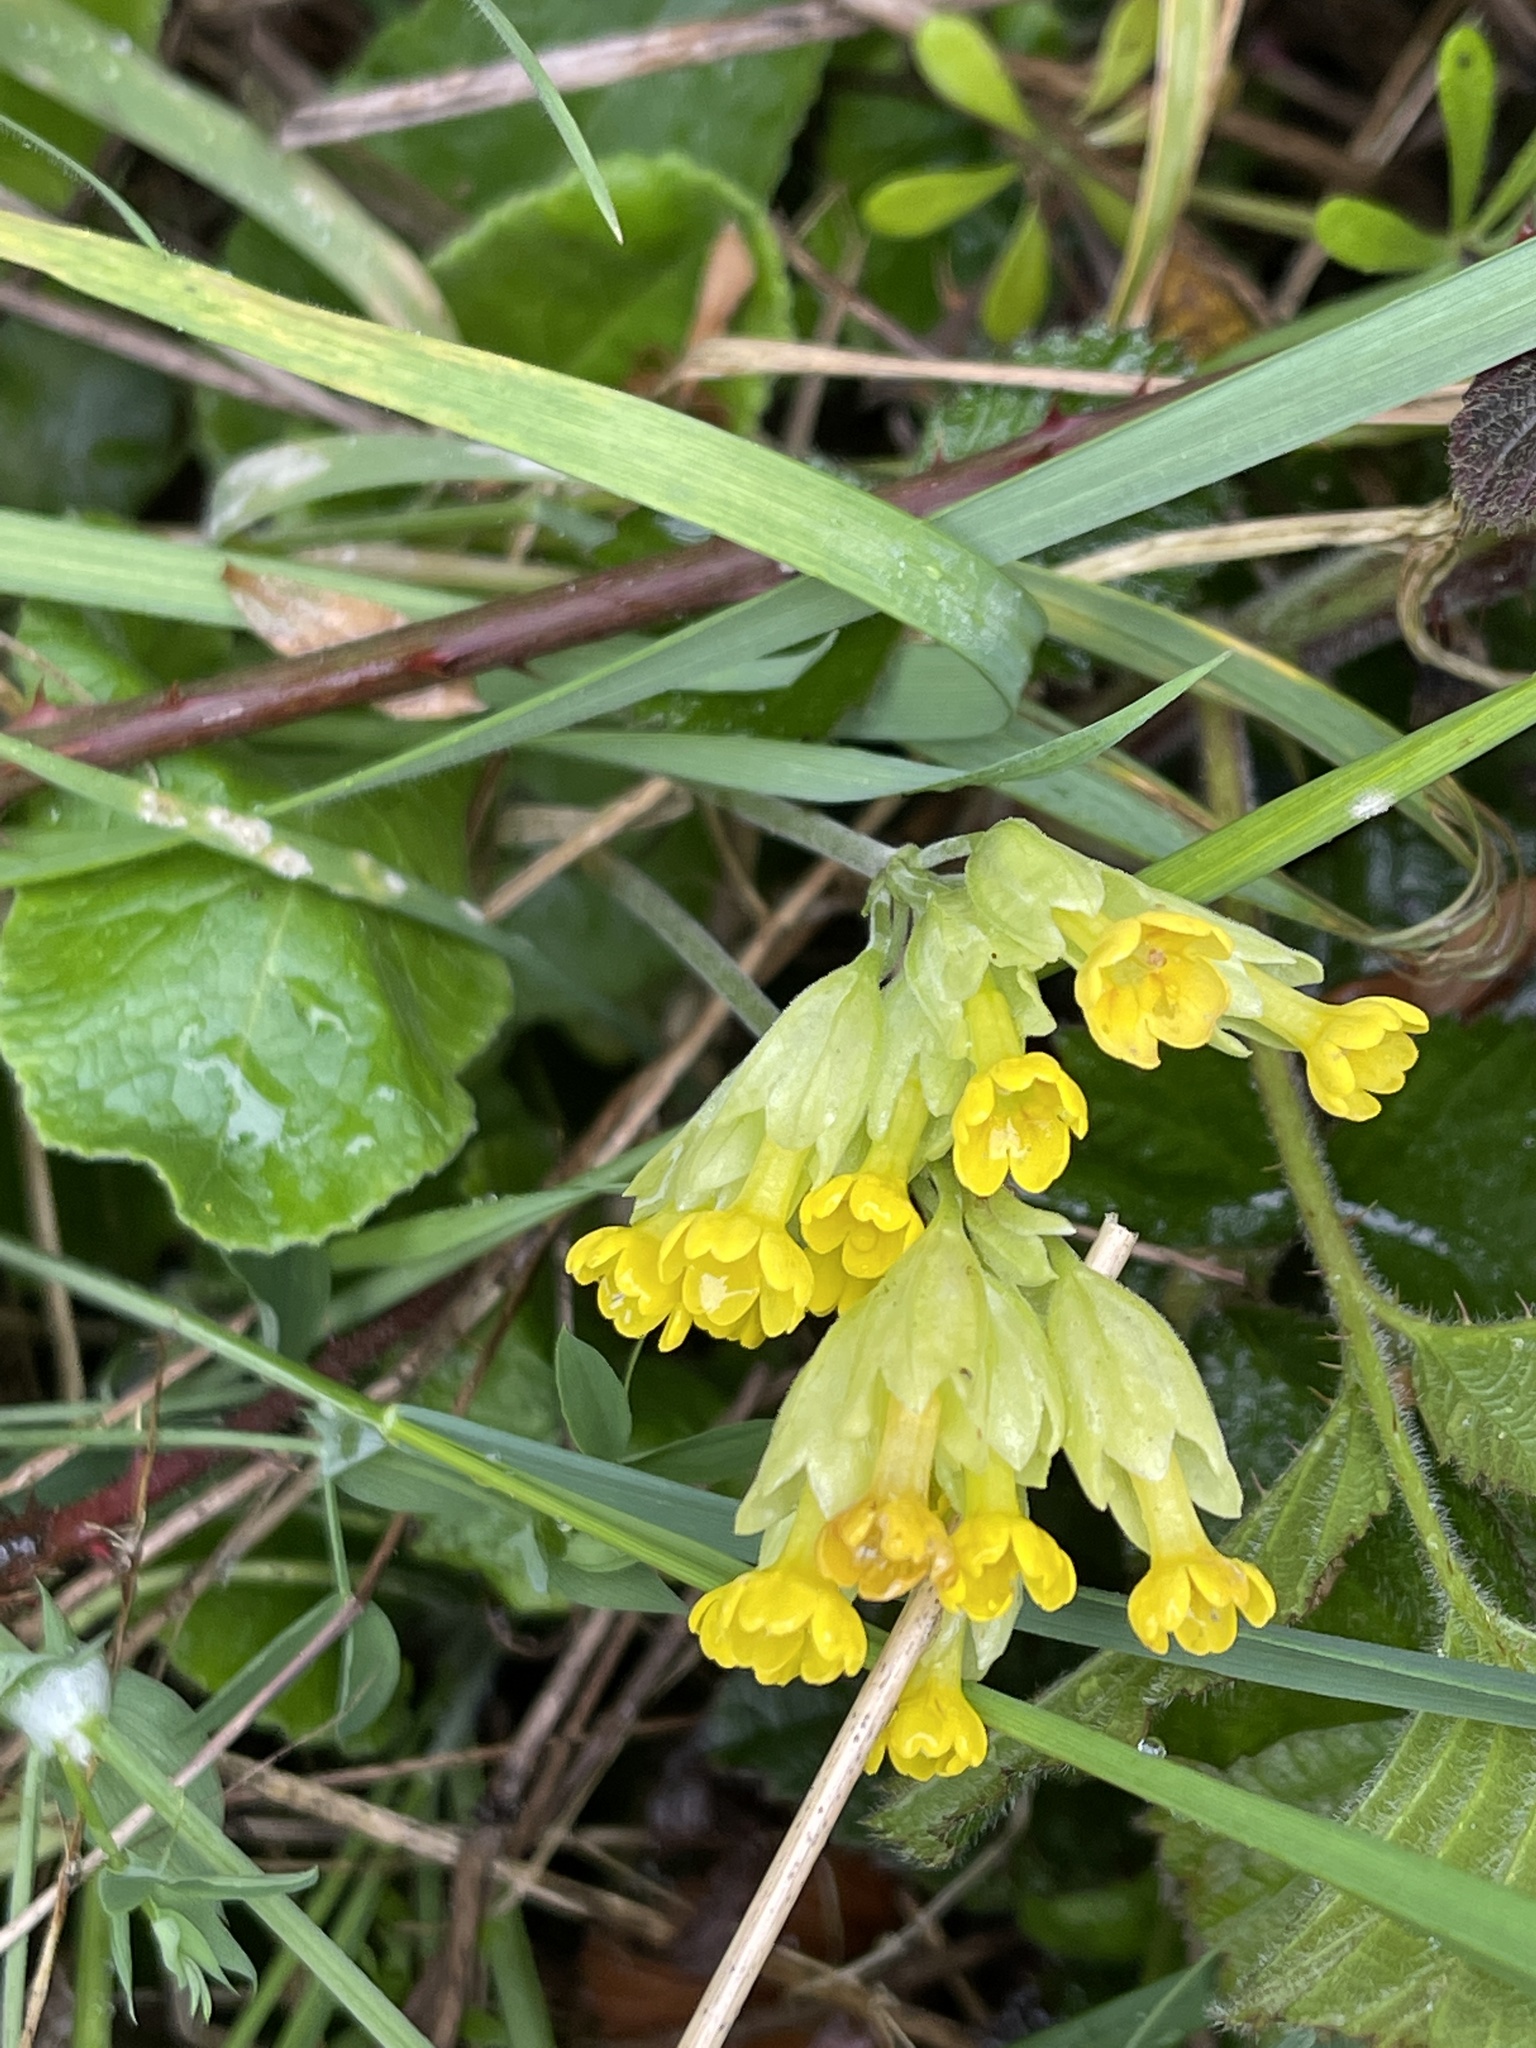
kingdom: Plantae
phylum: Tracheophyta
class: Magnoliopsida
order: Ericales
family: Primulaceae
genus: Primula
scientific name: Primula veris
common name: Cowslip
